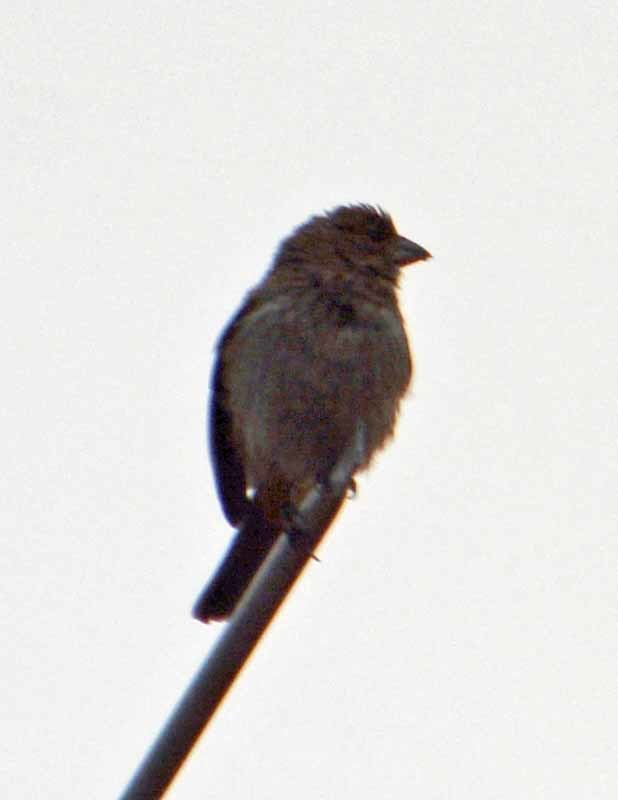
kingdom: Animalia
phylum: Chordata
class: Aves
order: Passeriformes
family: Passerellidae
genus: Melozone
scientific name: Melozone fusca
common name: Canyon towhee
